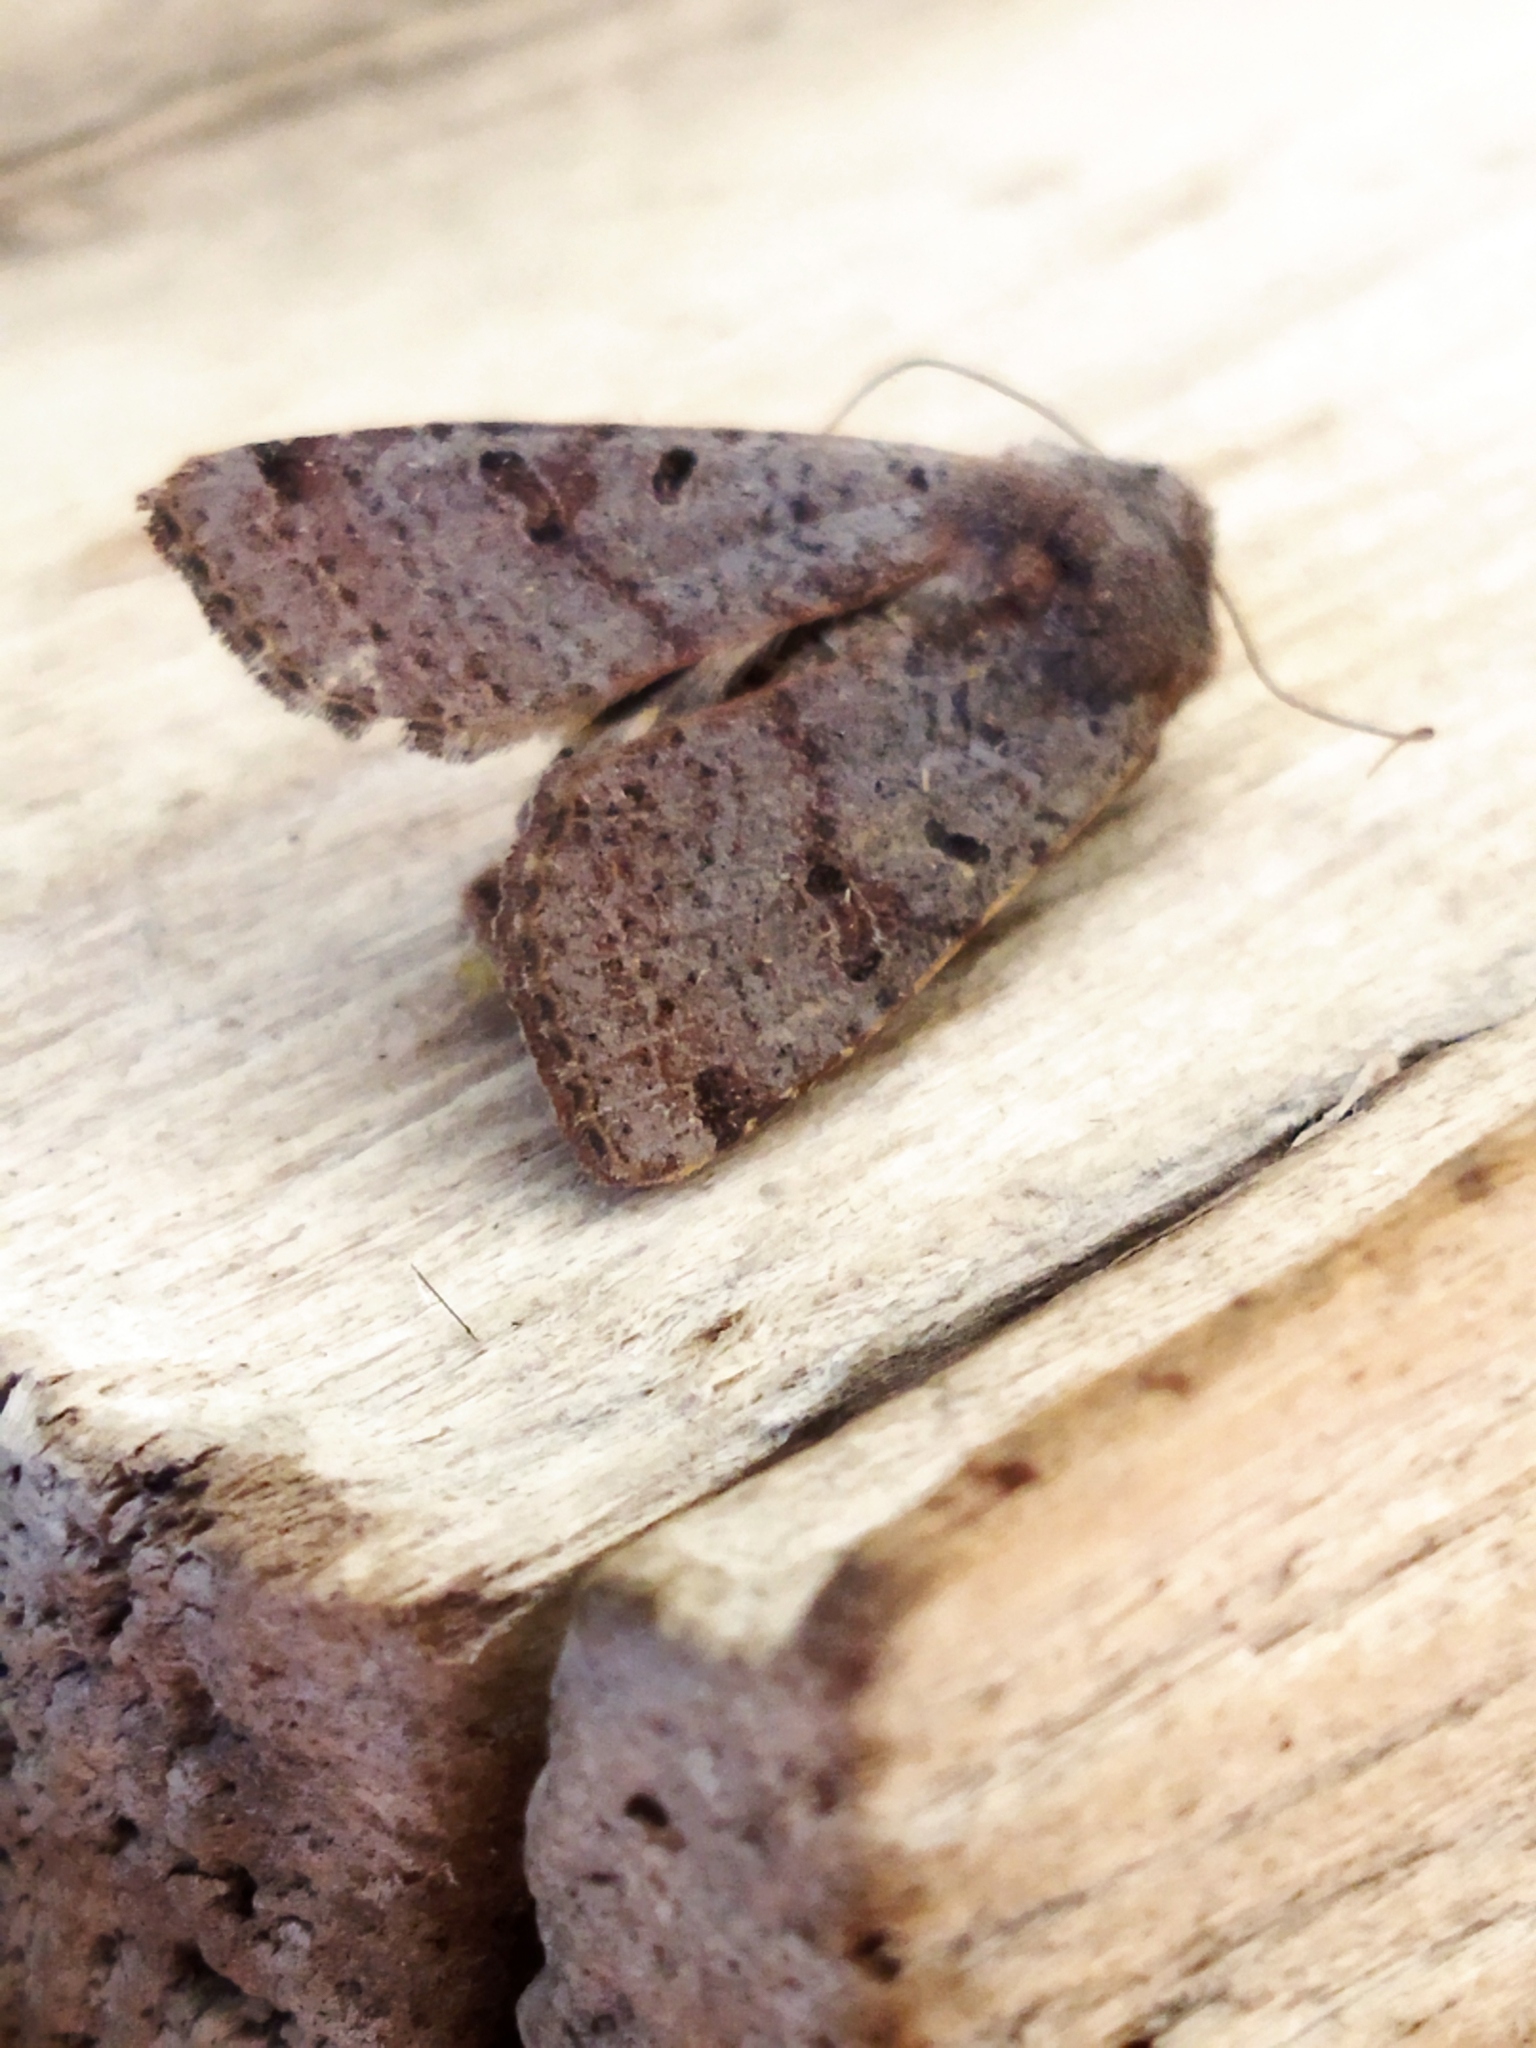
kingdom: Animalia
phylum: Arthropoda
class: Insecta
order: Lepidoptera
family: Noctuidae
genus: Agrochola
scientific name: Agrochola lychnidis
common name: Beaded chestnut
